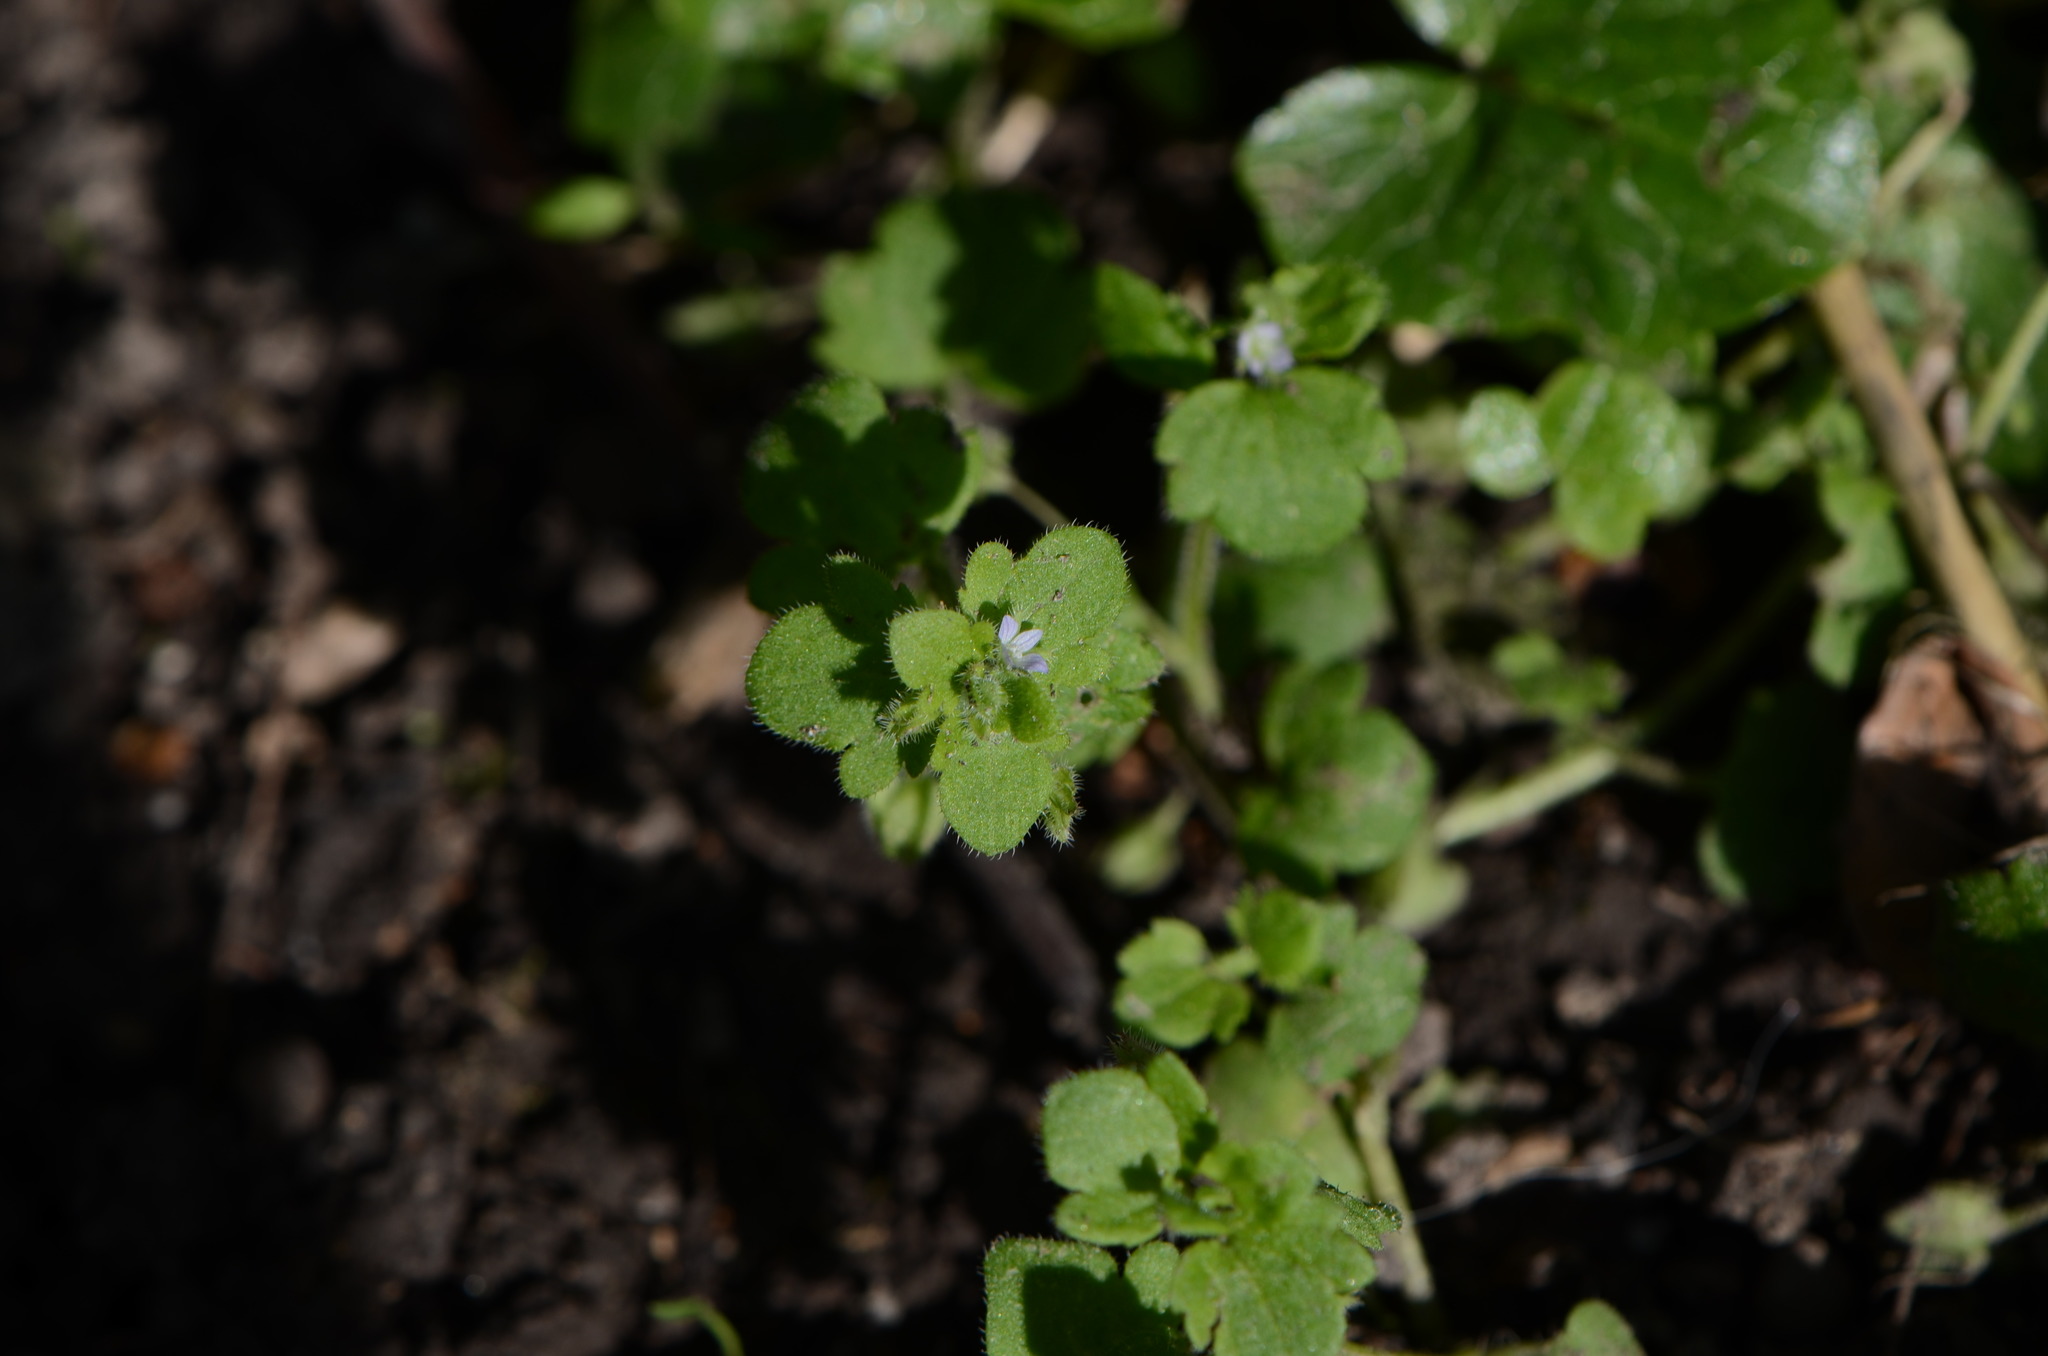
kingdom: Plantae
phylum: Tracheophyta
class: Magnoliopsida
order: Lamiales
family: Plantaginaceae
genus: Veronica
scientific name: Veronica sublobata
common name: False ivy-leaved speedwell
